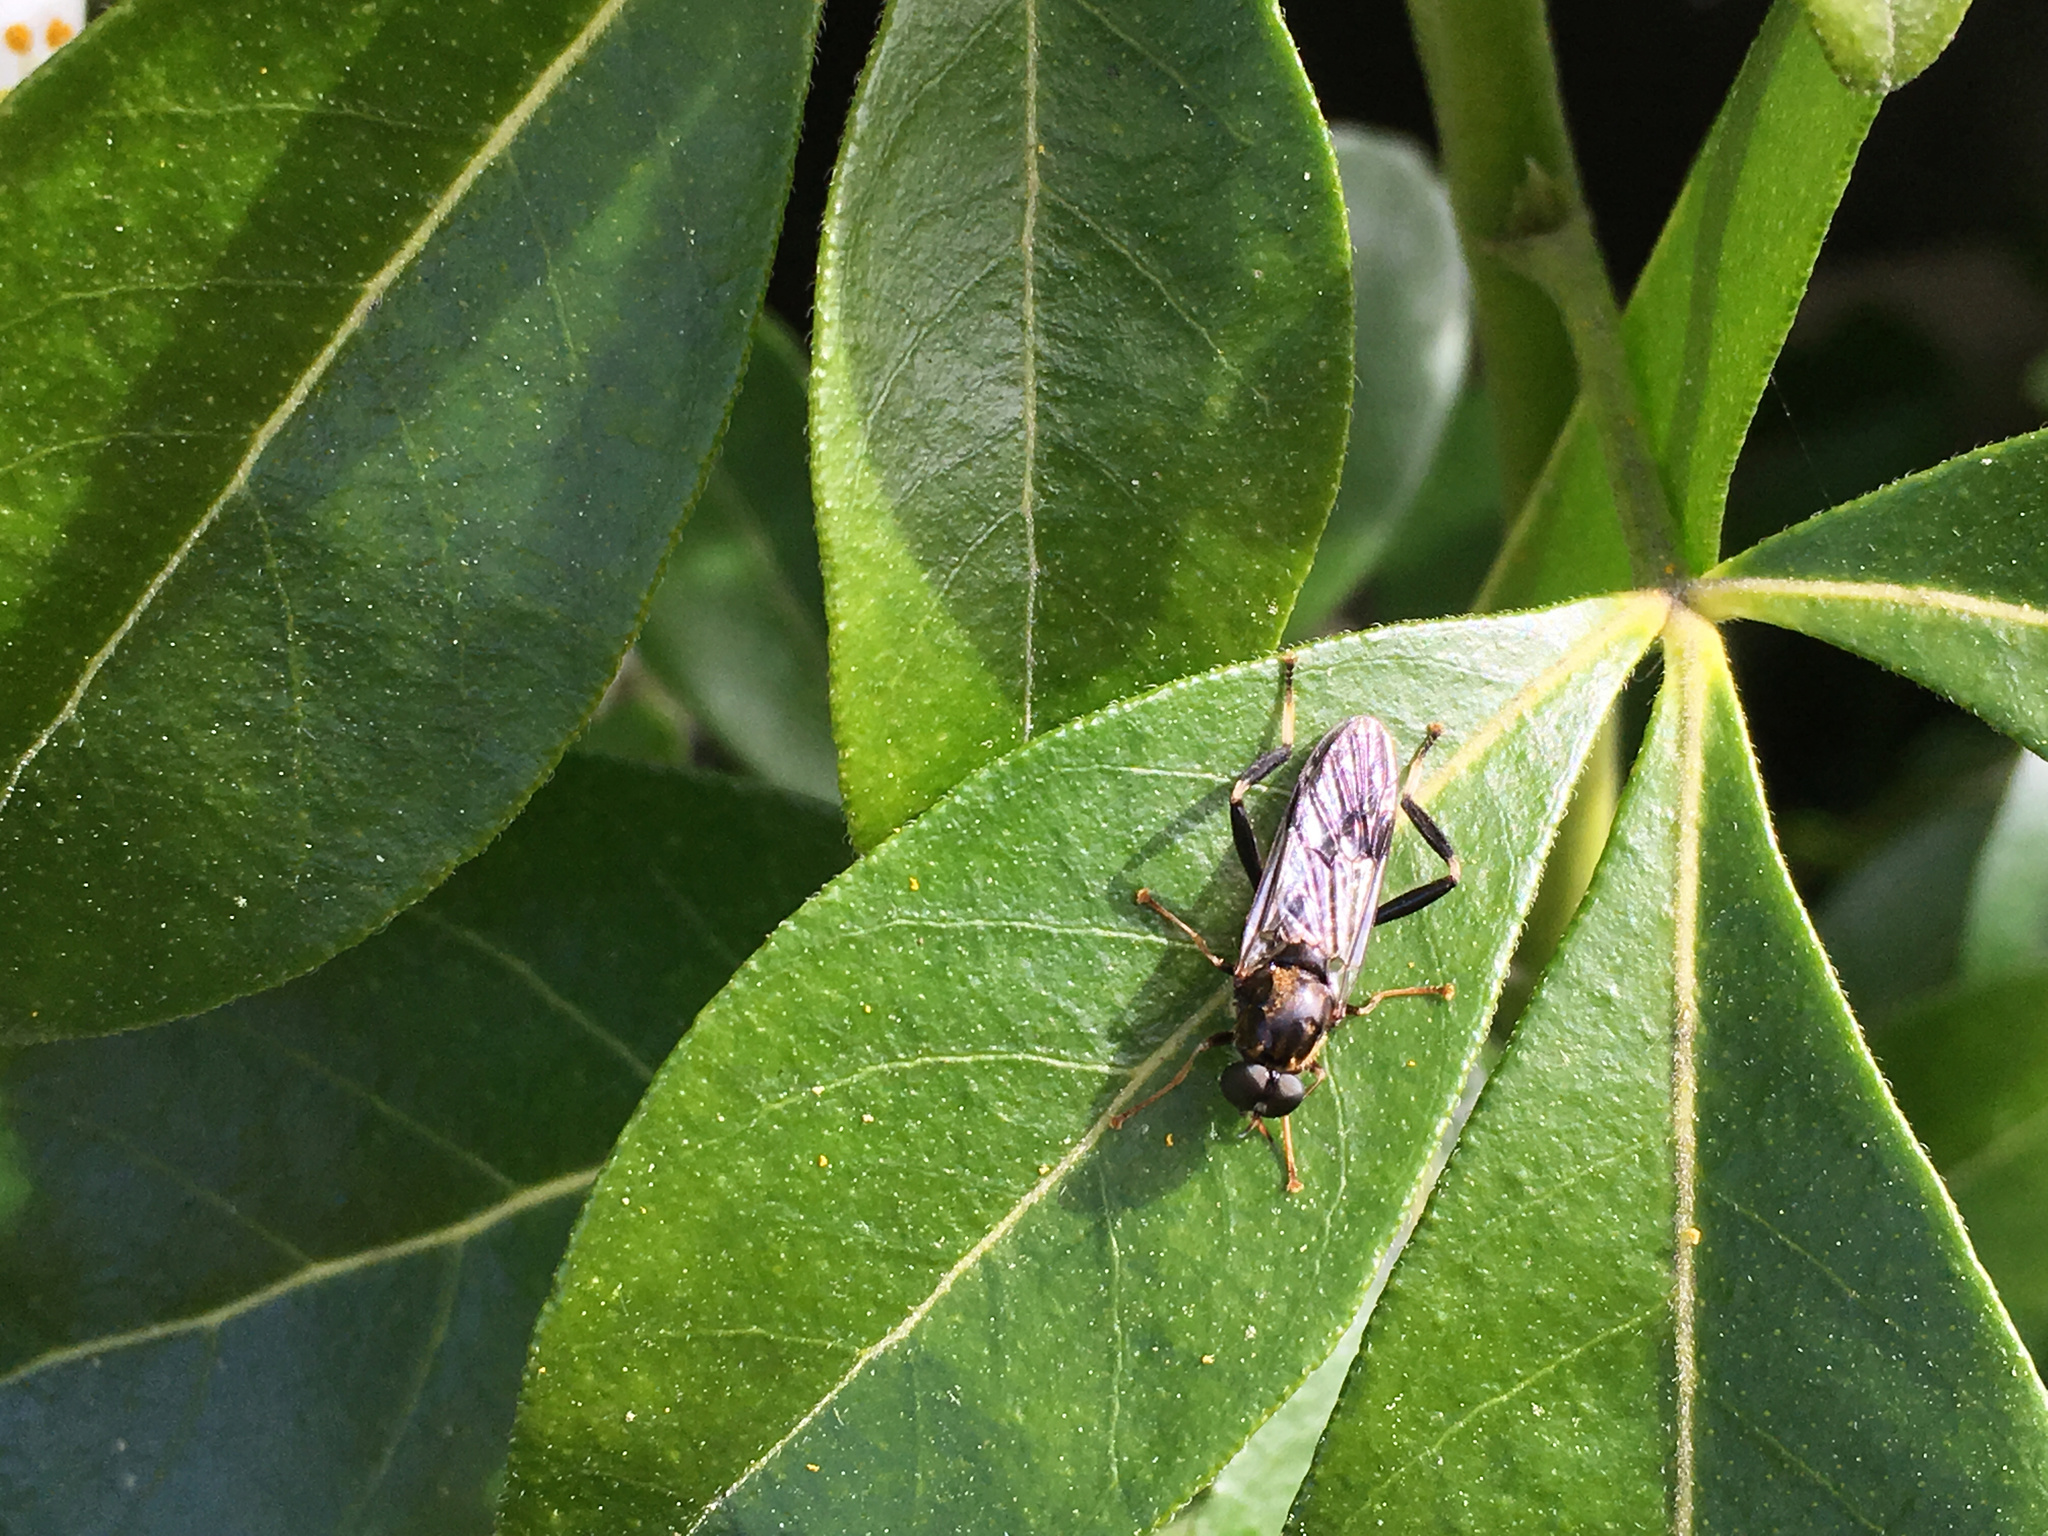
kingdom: Animalia
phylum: Arthropoda
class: Insecta
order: Diptera
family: Stratiomyidae
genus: Exaireta
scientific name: Exaireta spinigera
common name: Blue soldier fly
